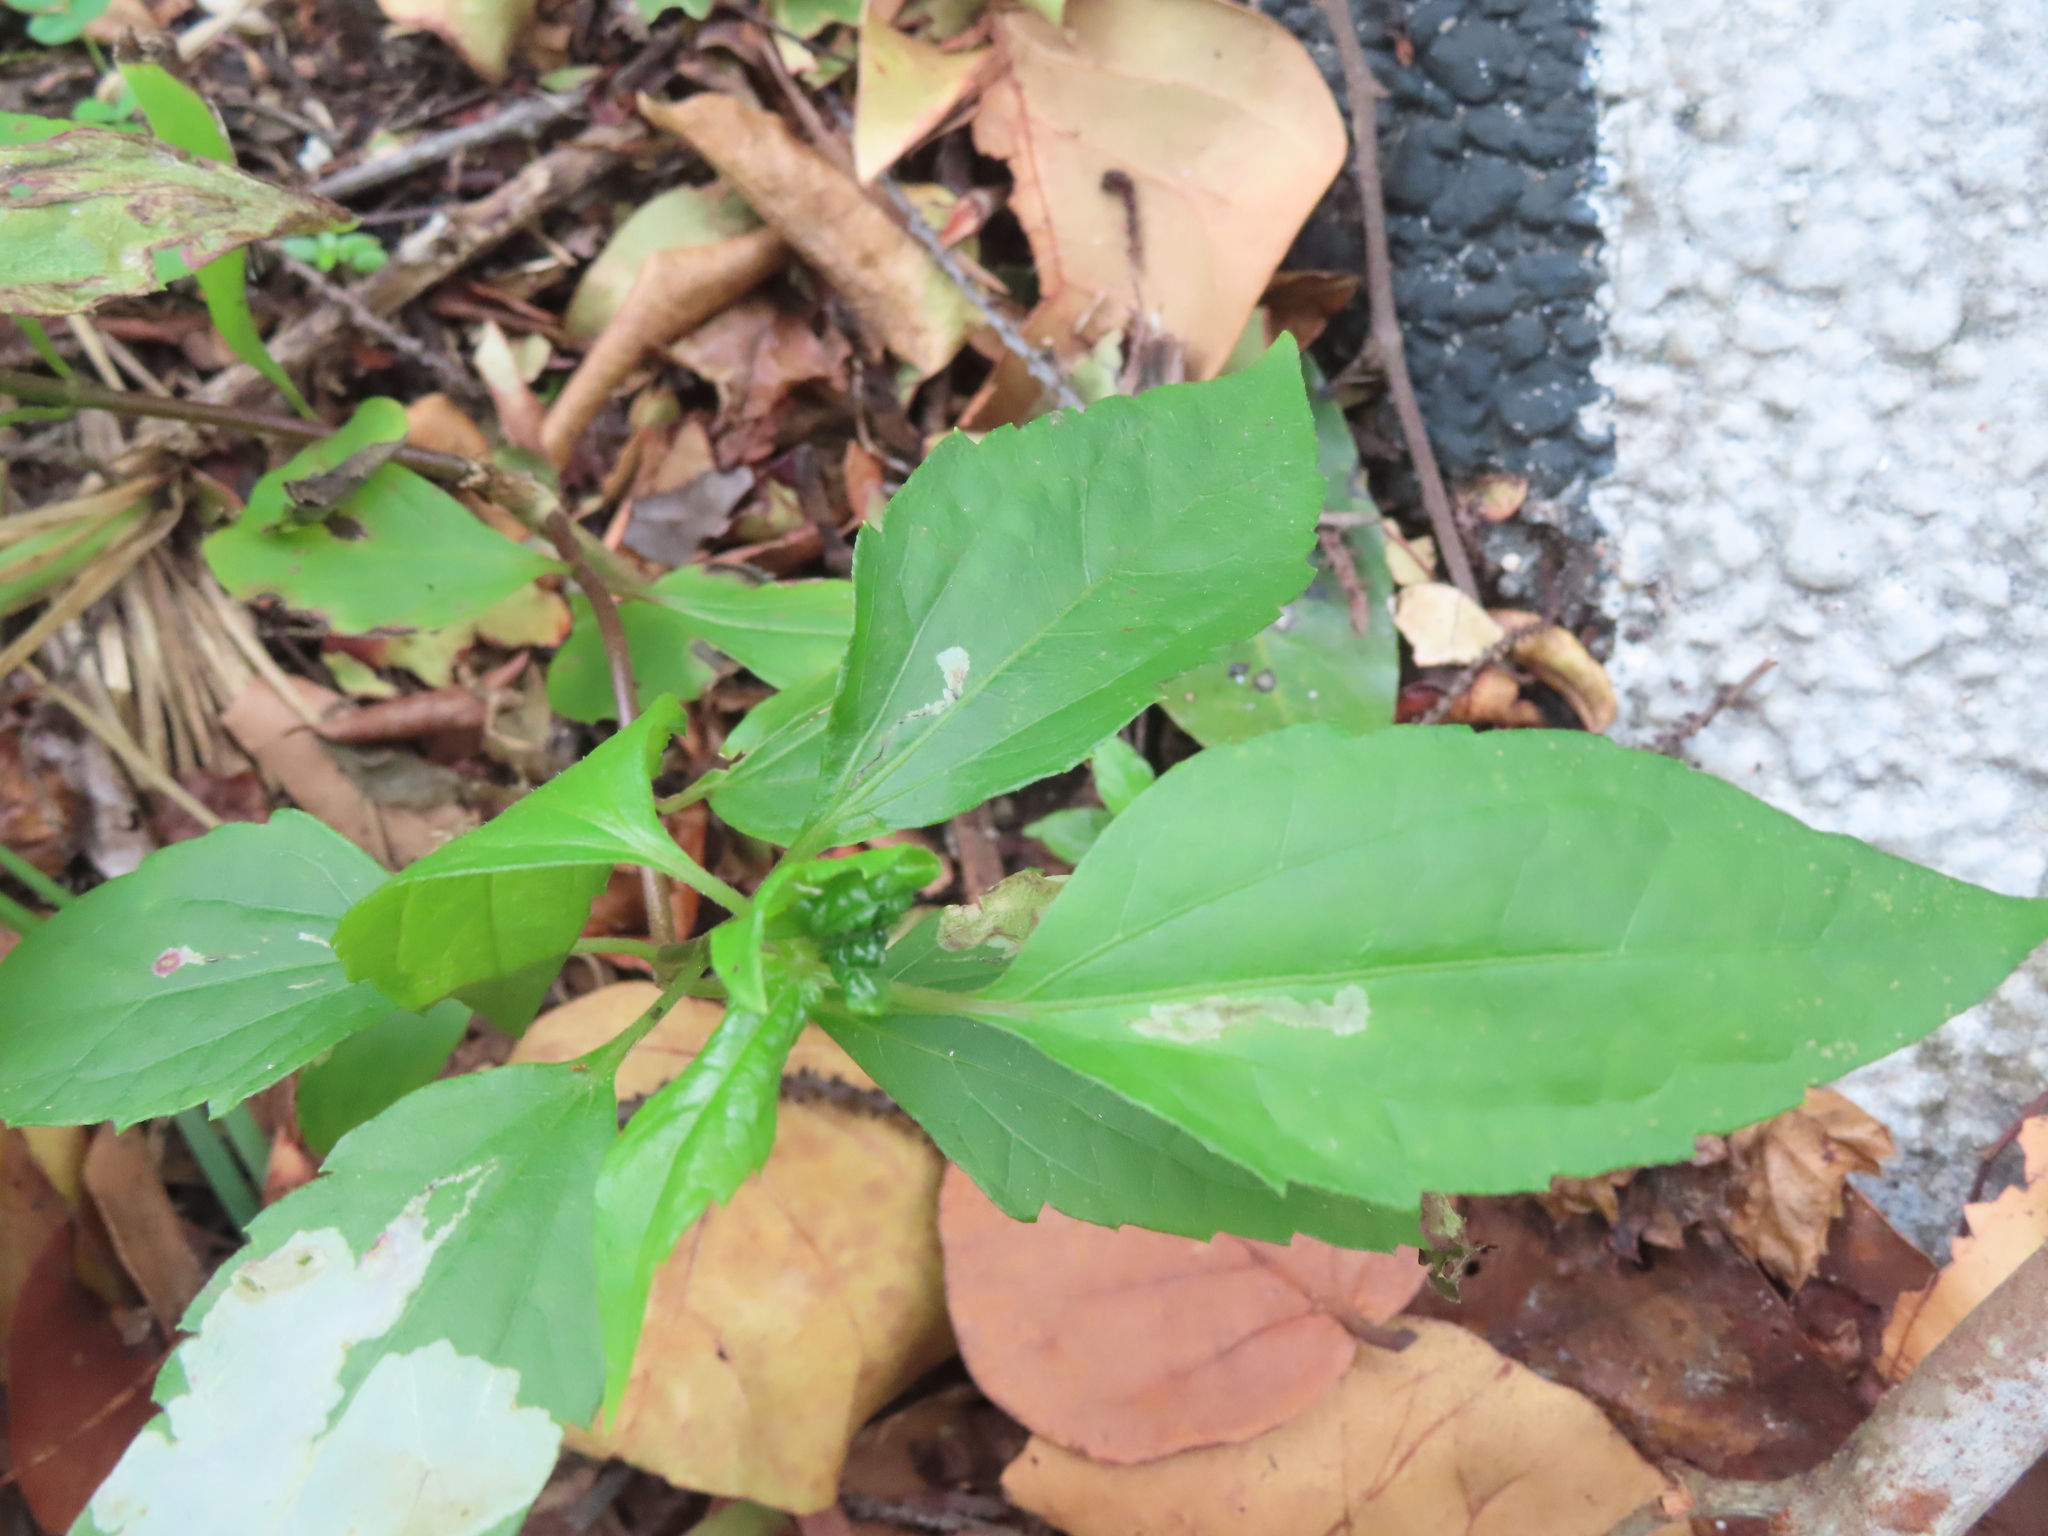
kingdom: Plantae
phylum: Tracheophyta
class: Magnoliopsida
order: Asterales
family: Asteraceae
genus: Chromolaena
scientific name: Chromolaena odorata
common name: Siamweed
